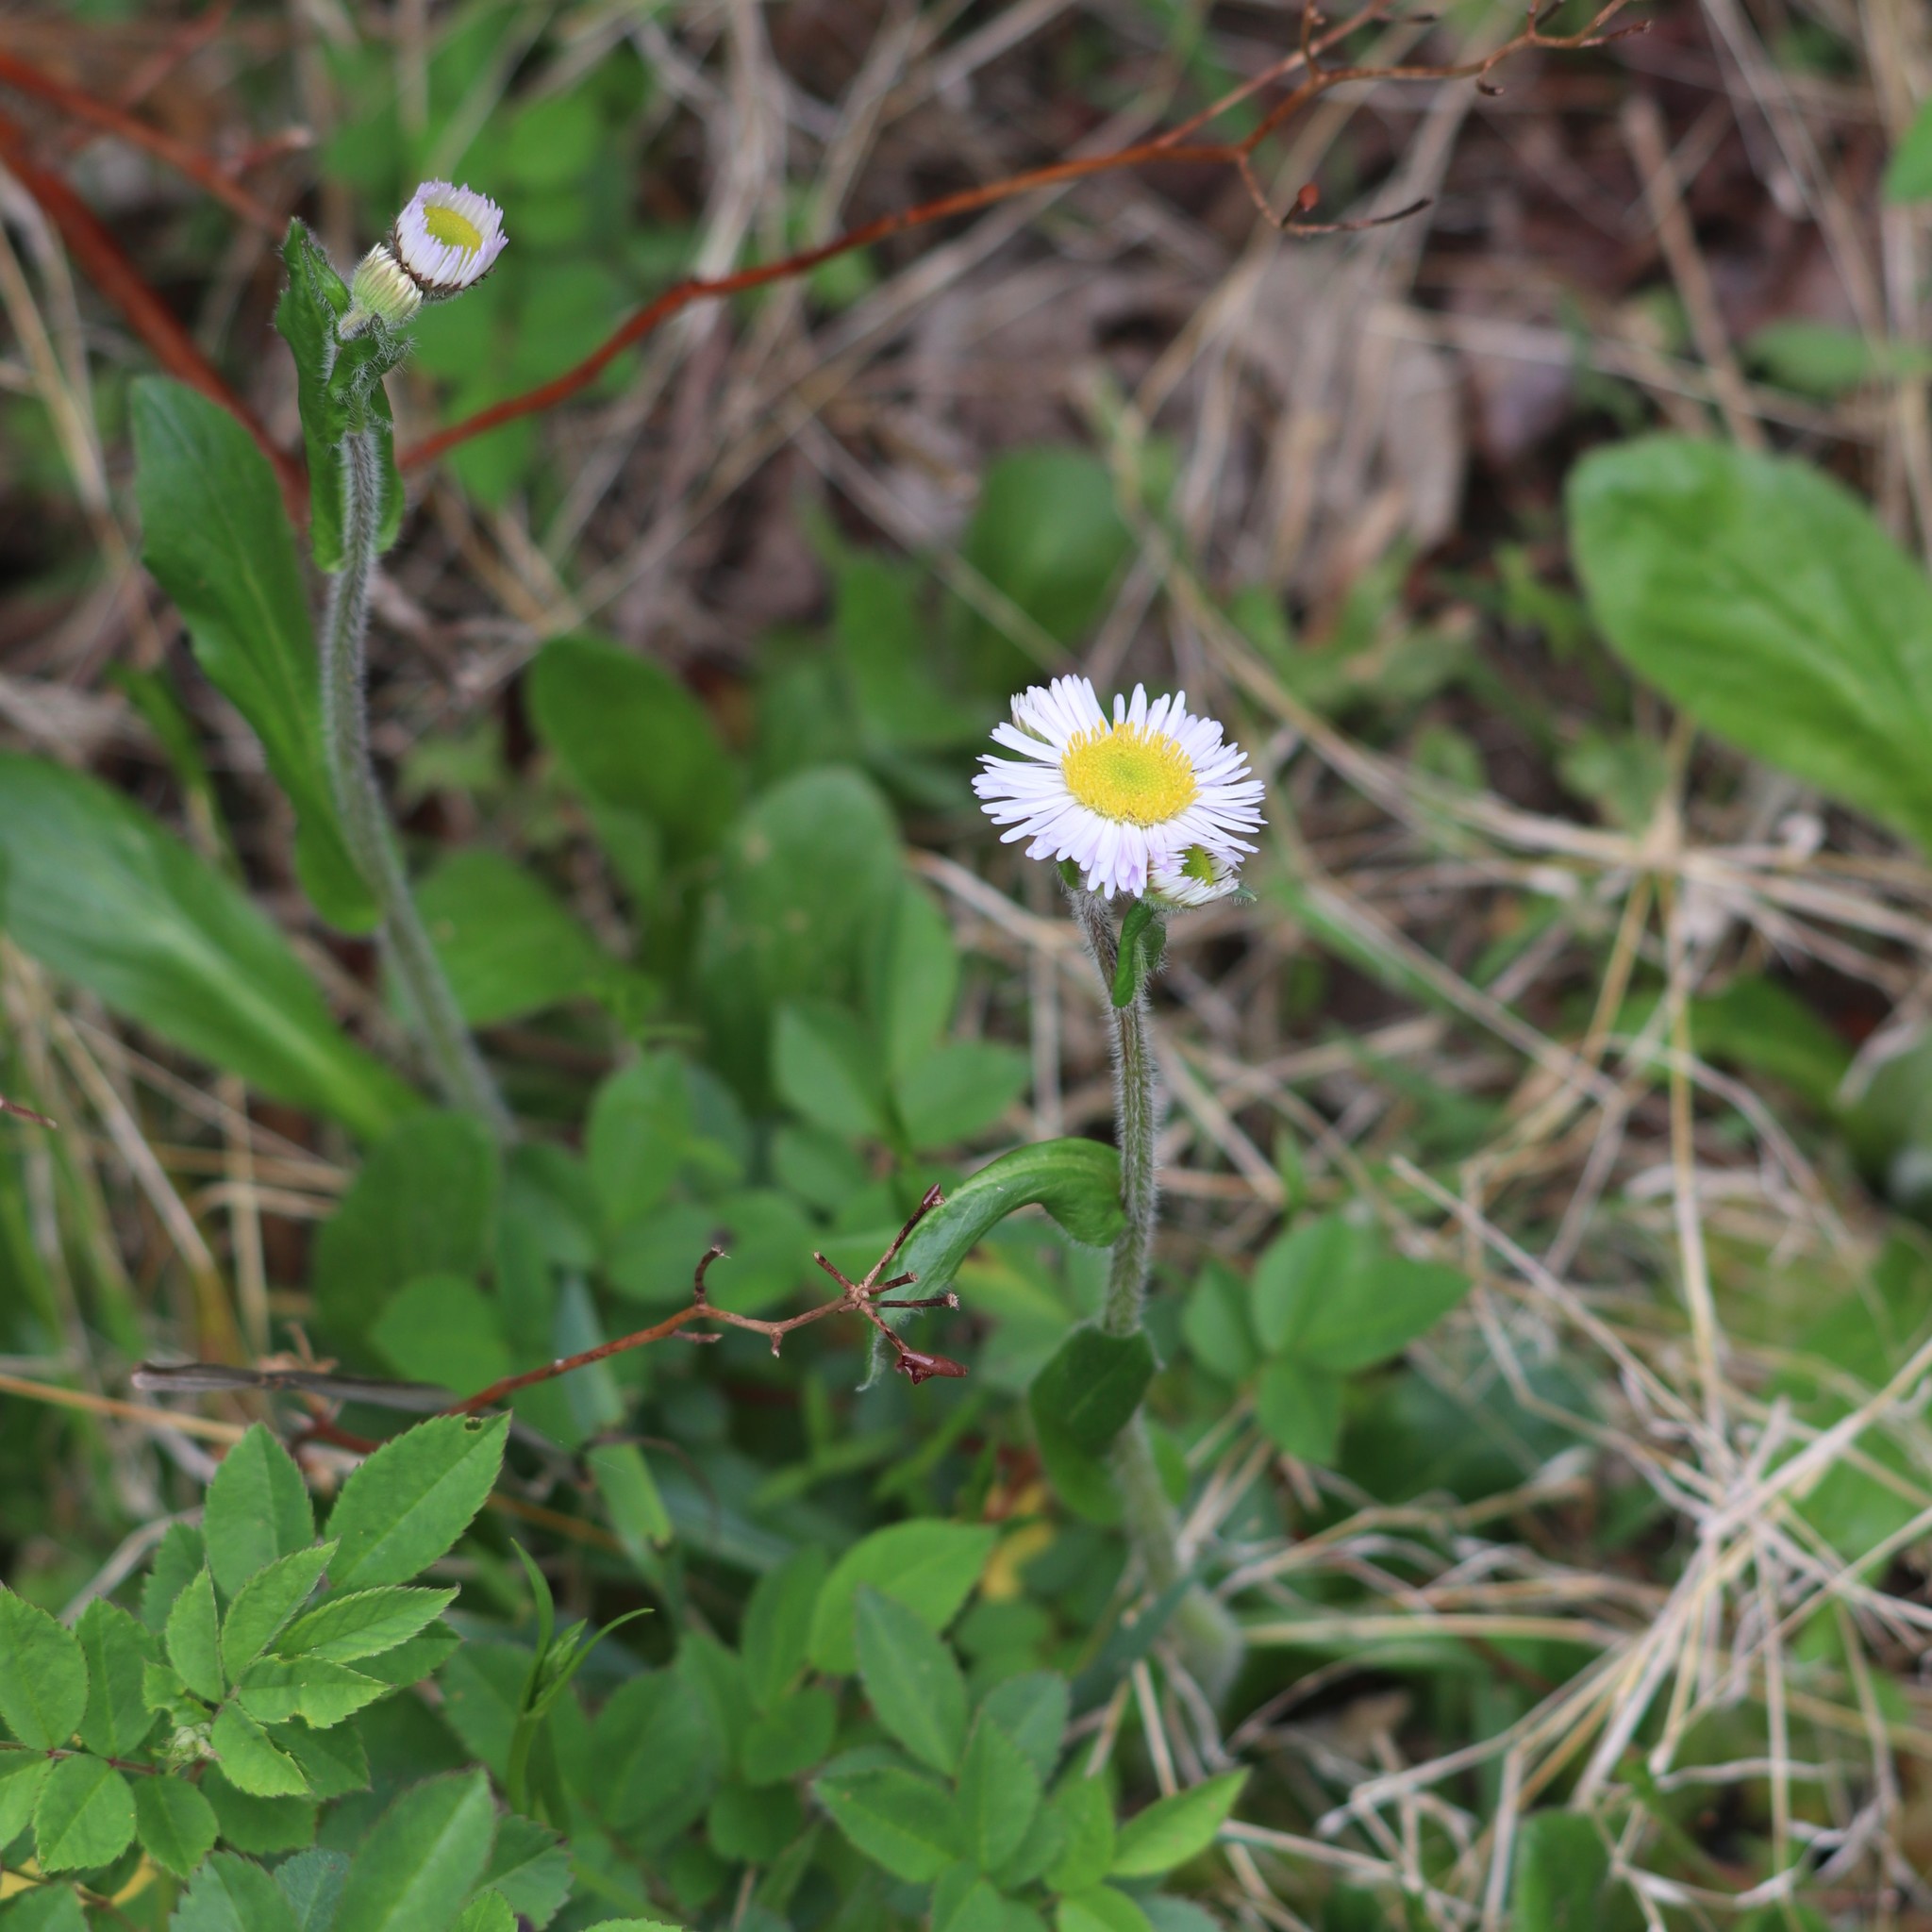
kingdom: Plantae
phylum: Tracheophyta
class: Magnoliopsida
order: Asterales
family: Asteraceae
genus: Erigeron
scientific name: Erigeron pulchellus
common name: Hairy fleabane
